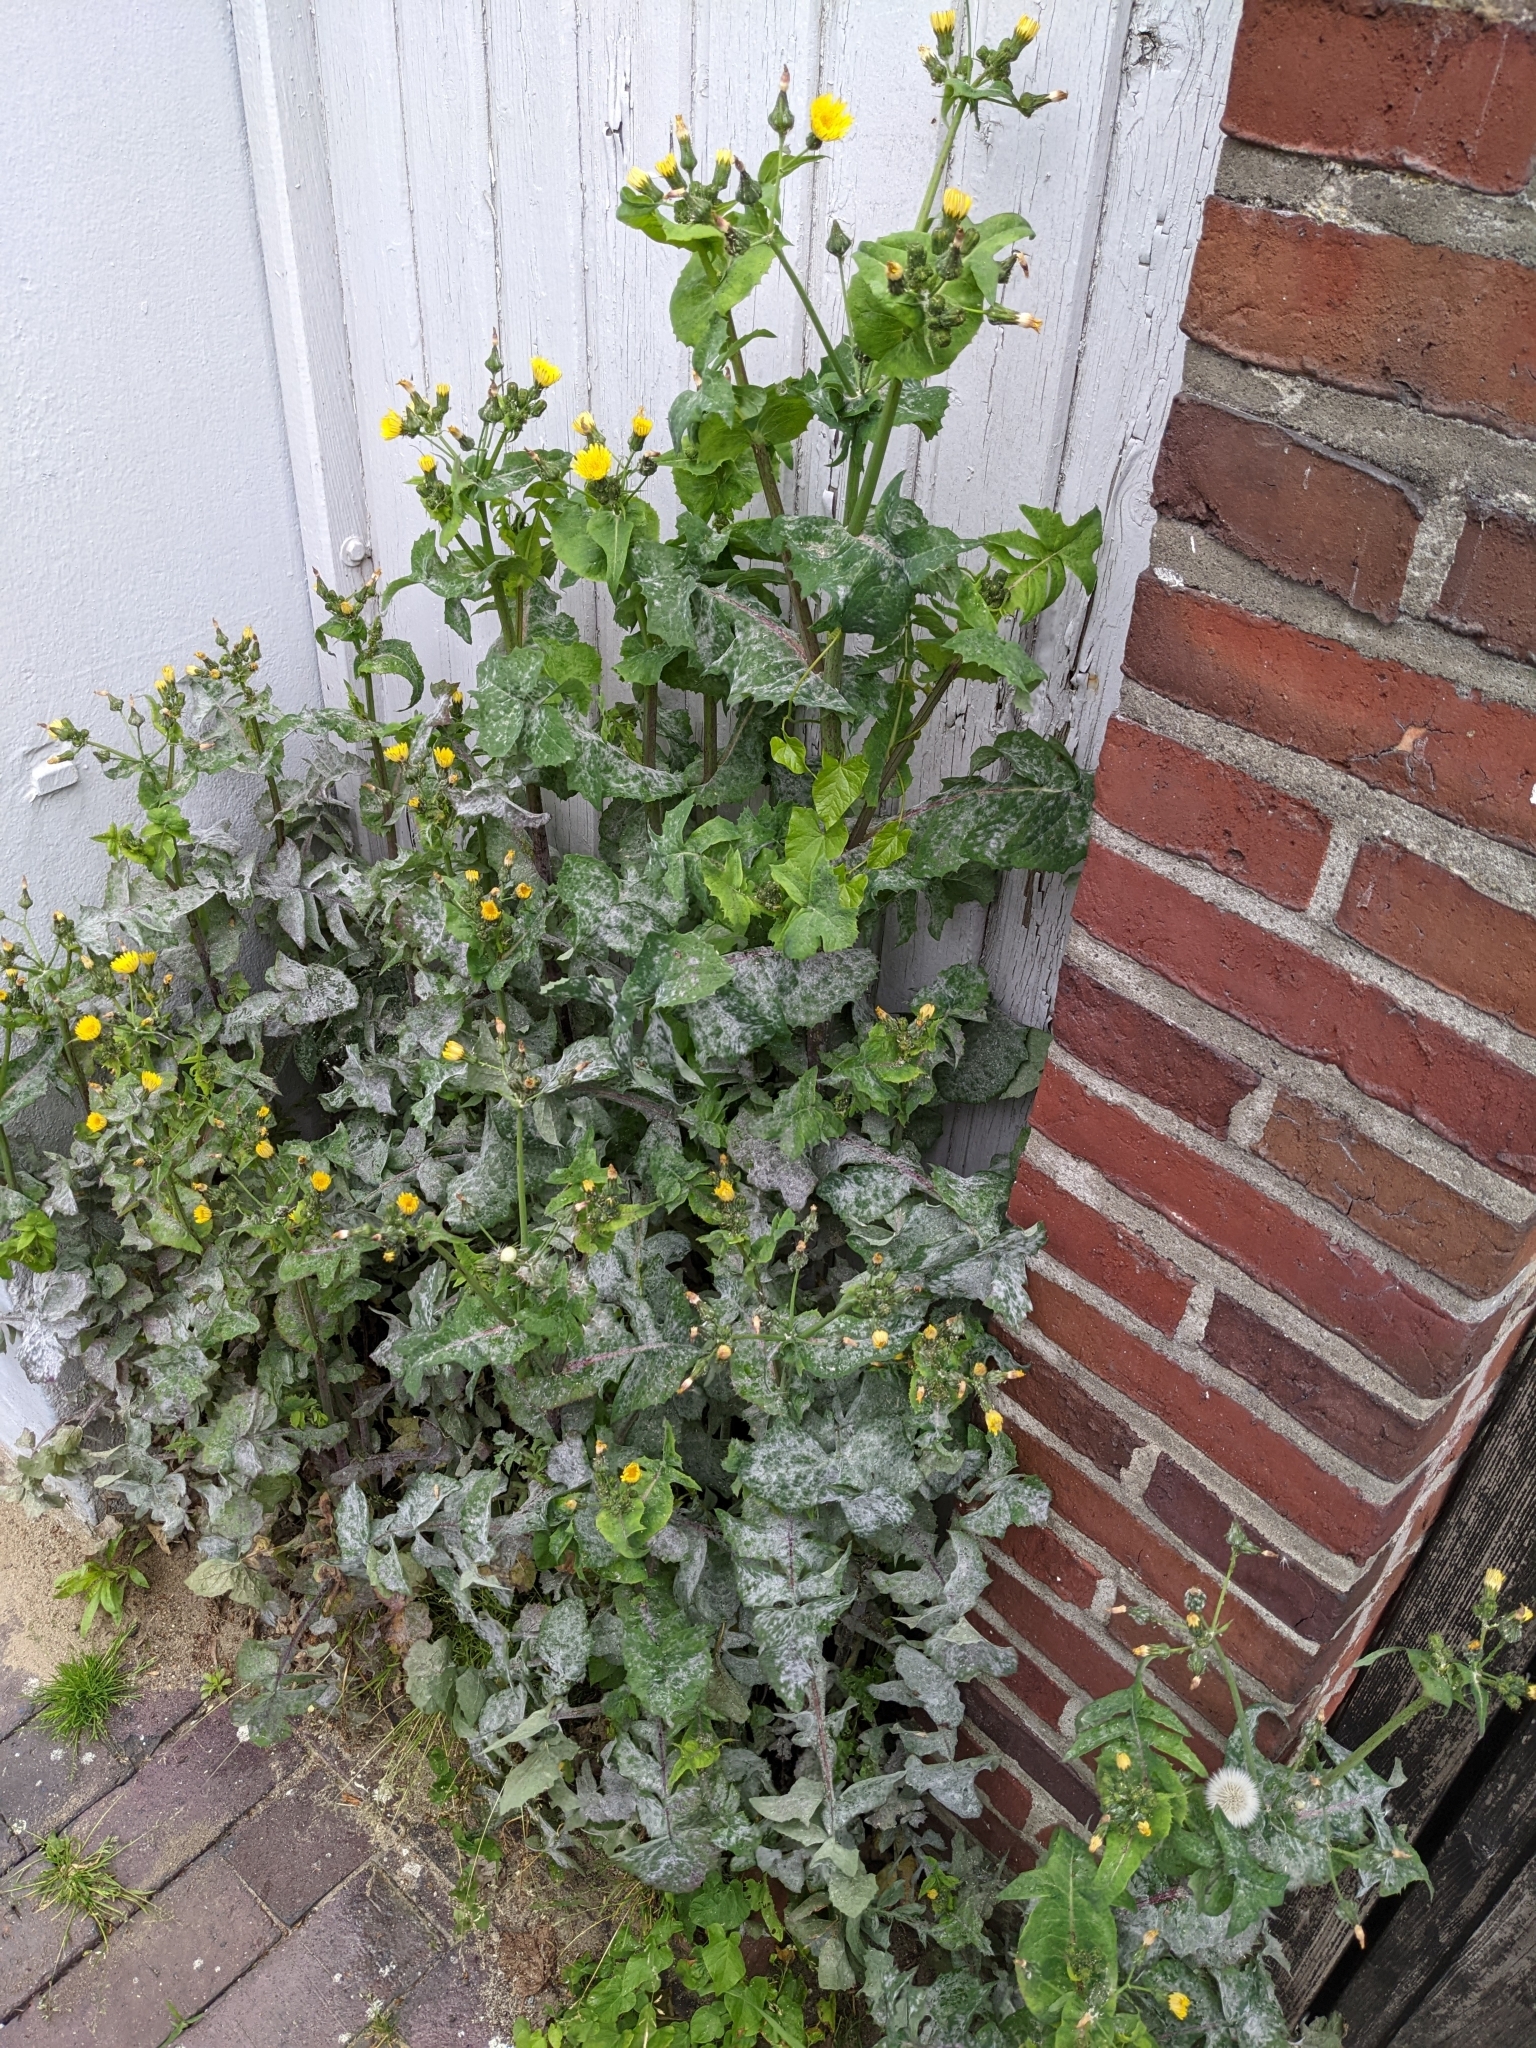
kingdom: Plantae
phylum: Tracheophyta
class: Magnoliopsida
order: Asterales
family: Asteraceae
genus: Sonchus
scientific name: Sonchus oleraceus
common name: Common sowthistle
